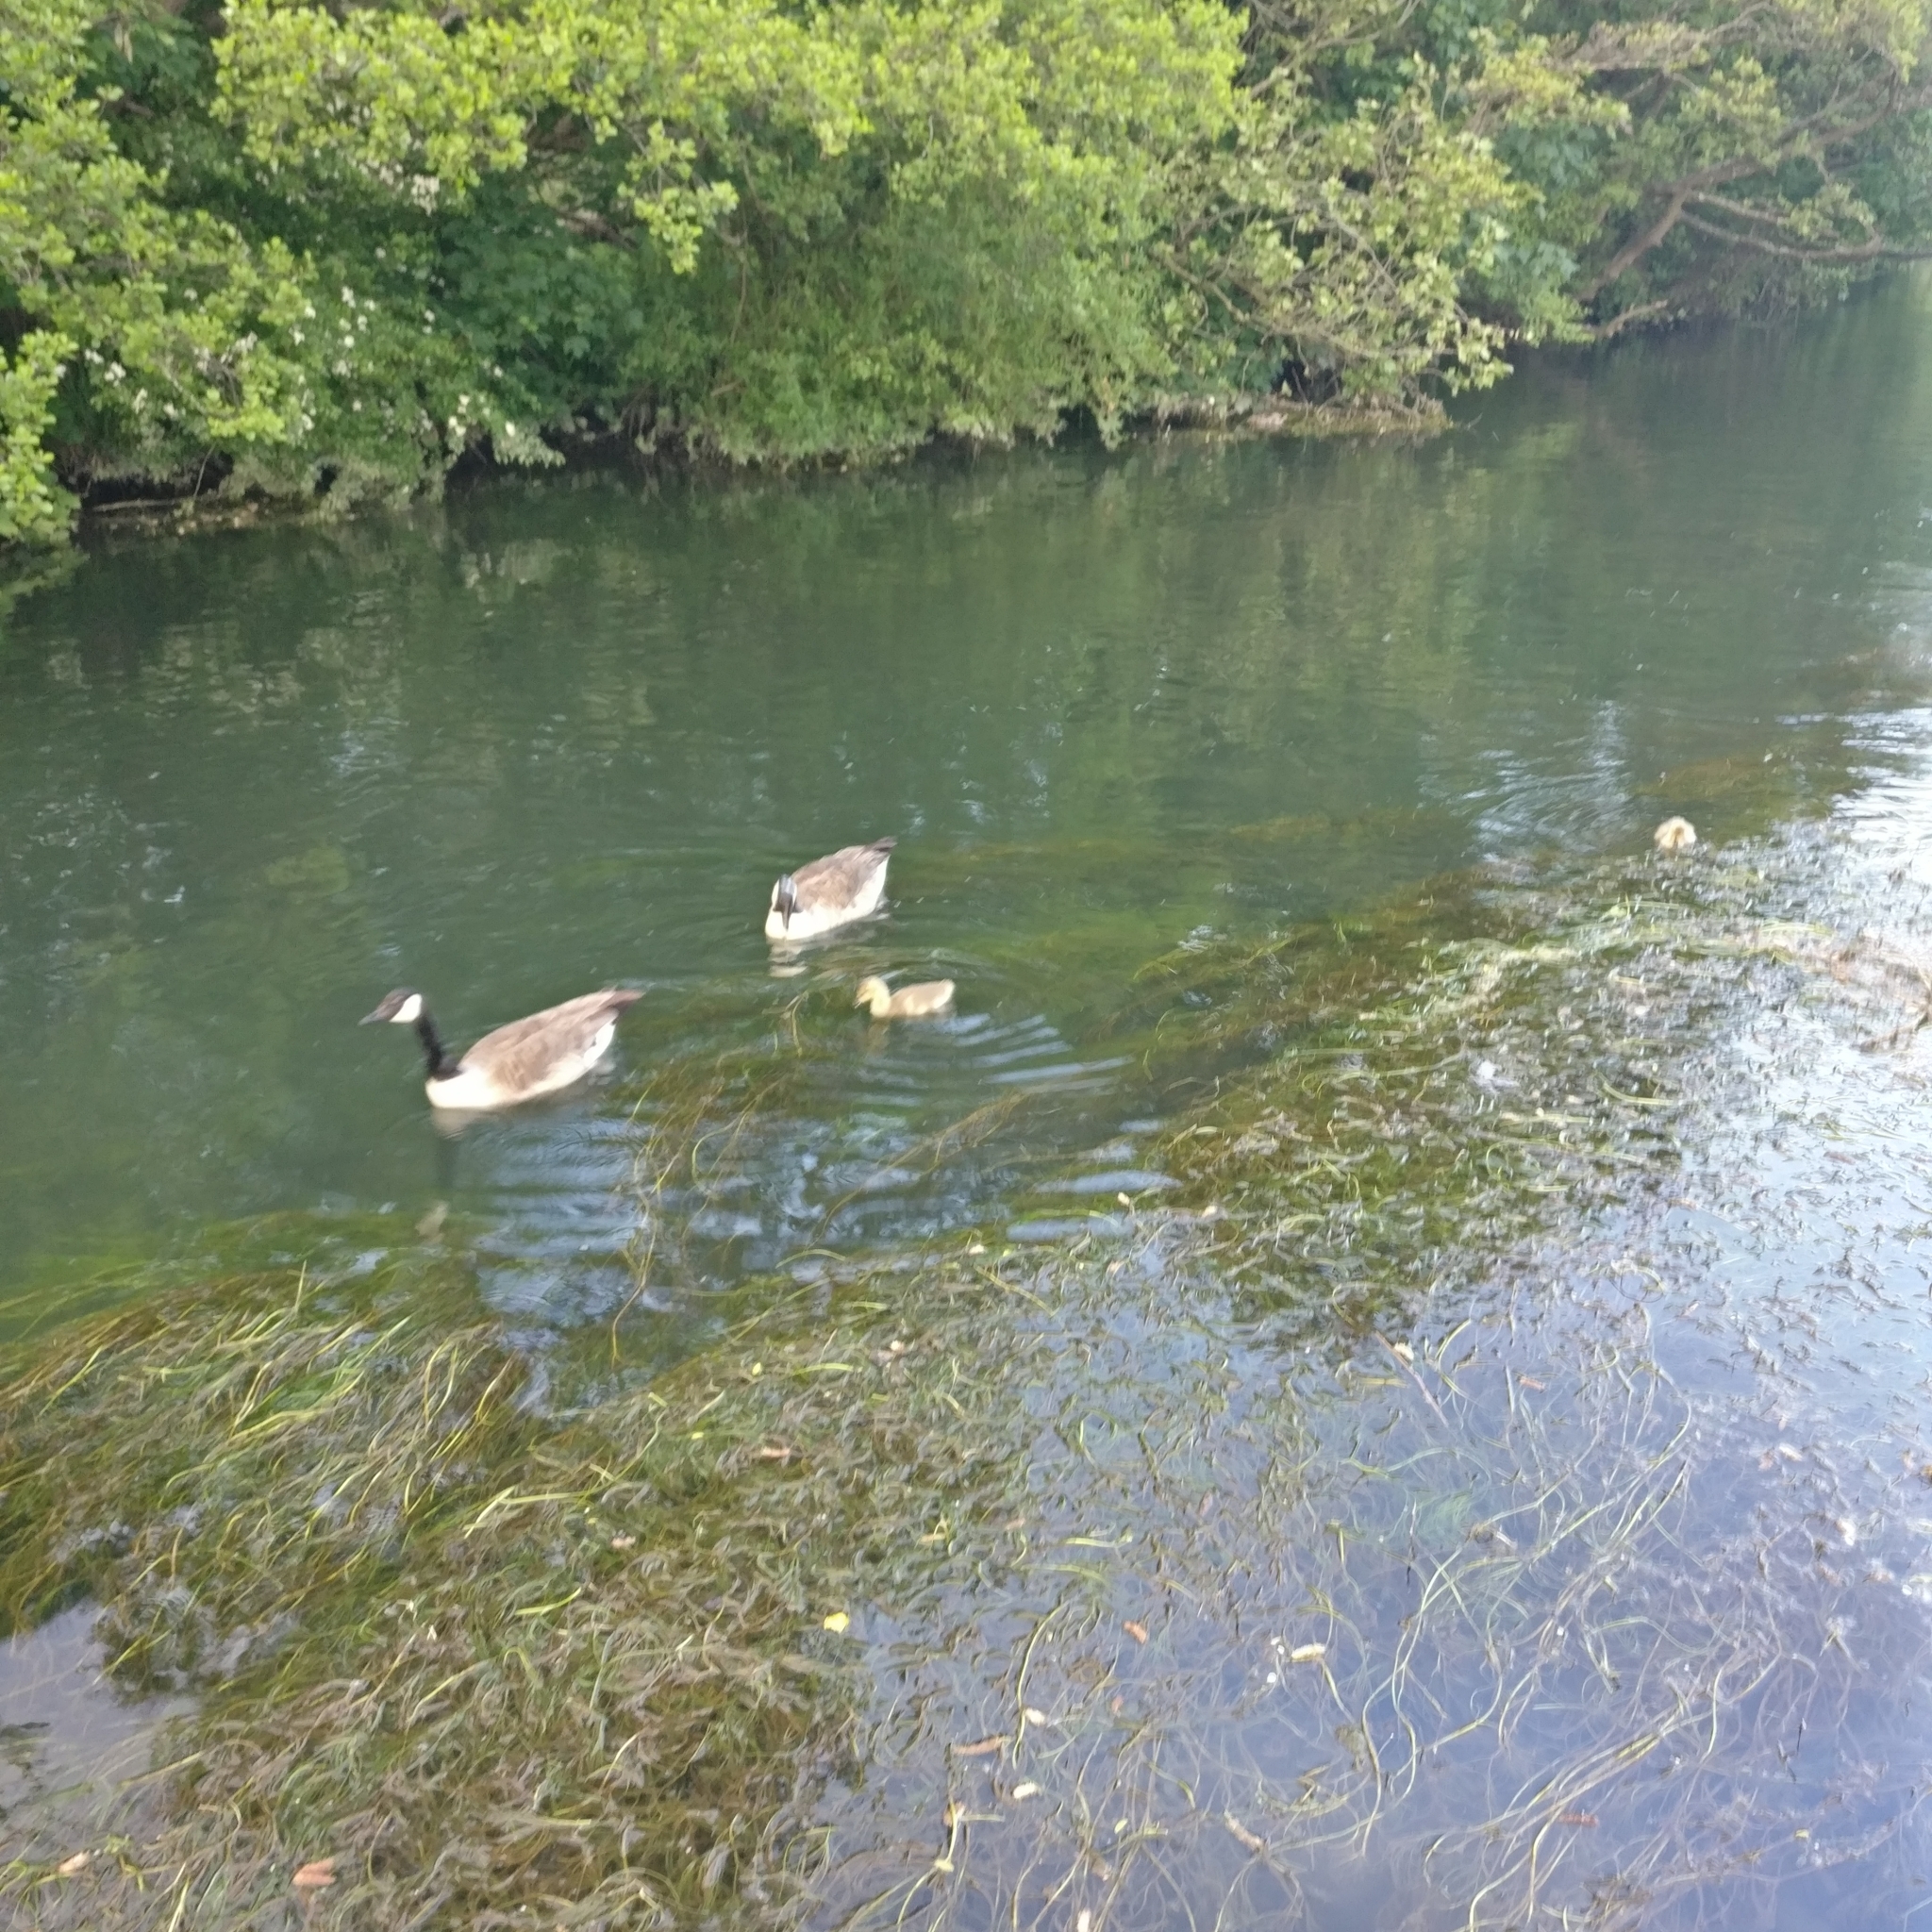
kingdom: Animalia
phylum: Chordata
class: Aves
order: Anseriformes
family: Anatidae
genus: Branta
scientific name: Branta canadensis
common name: Canada goose
